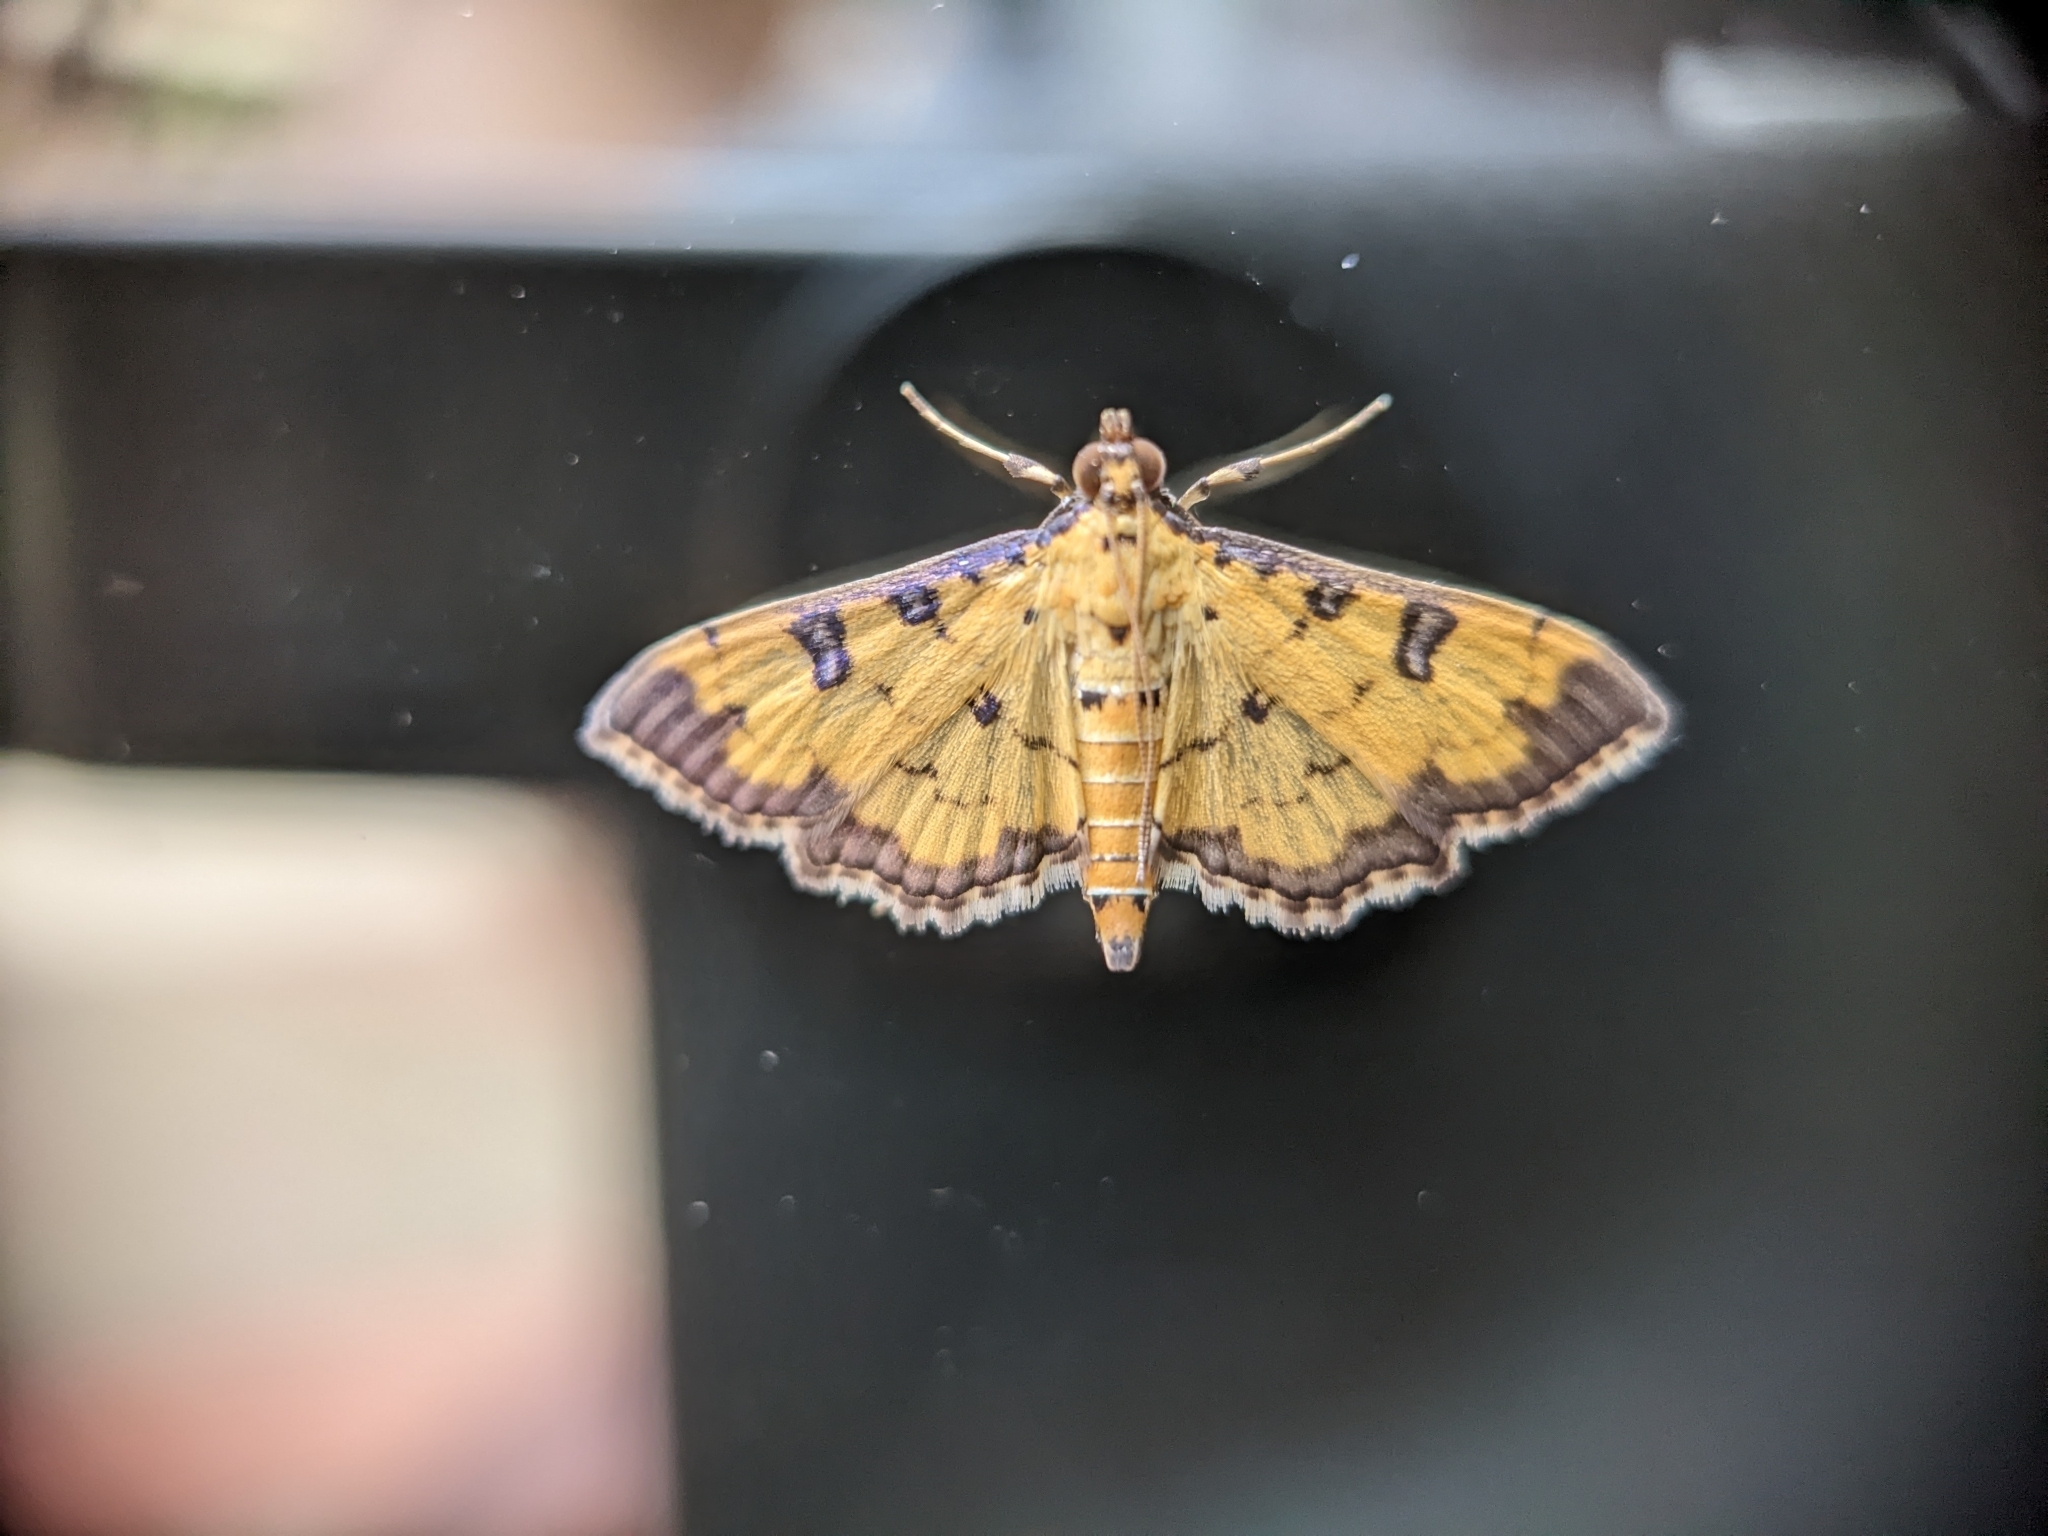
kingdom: Animalia
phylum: Arthropoda
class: Insecta
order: Lepidoptera
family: Crambidae
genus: Ategumia
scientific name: Ategumia ebulealis
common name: Moth
